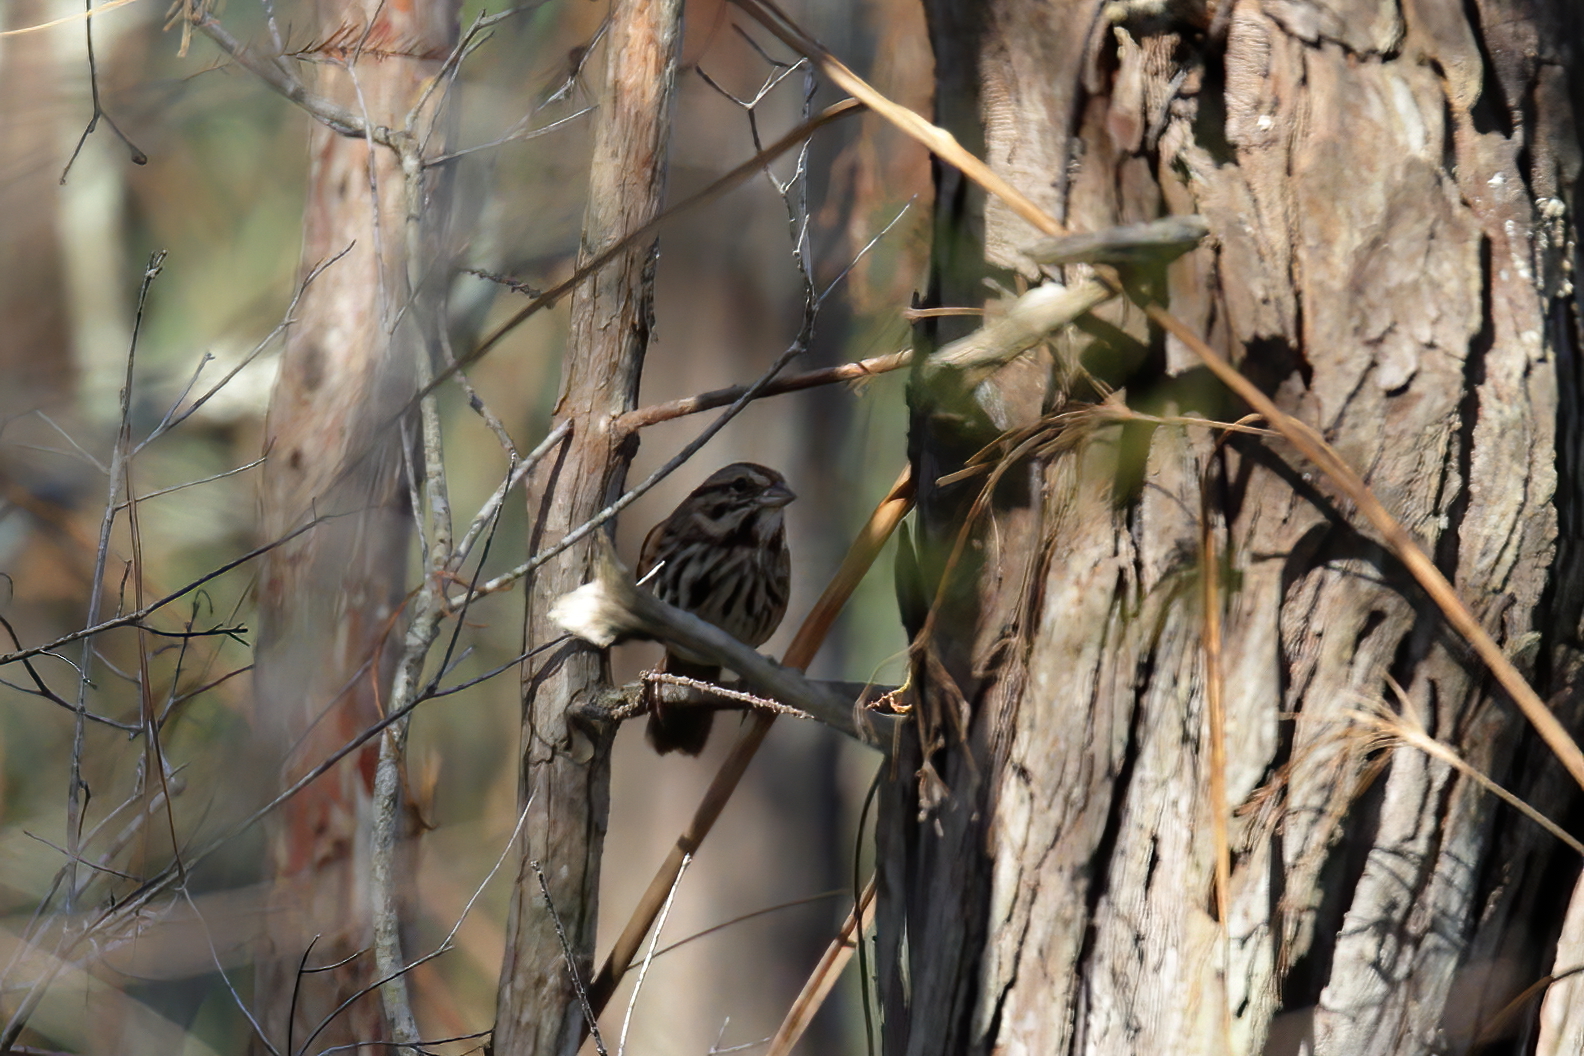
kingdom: Animalia
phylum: Chordata
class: Aves
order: Passeriformes
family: Passerellidae
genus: Melospiza
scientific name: Melospiza melodia
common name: Song sparrow
